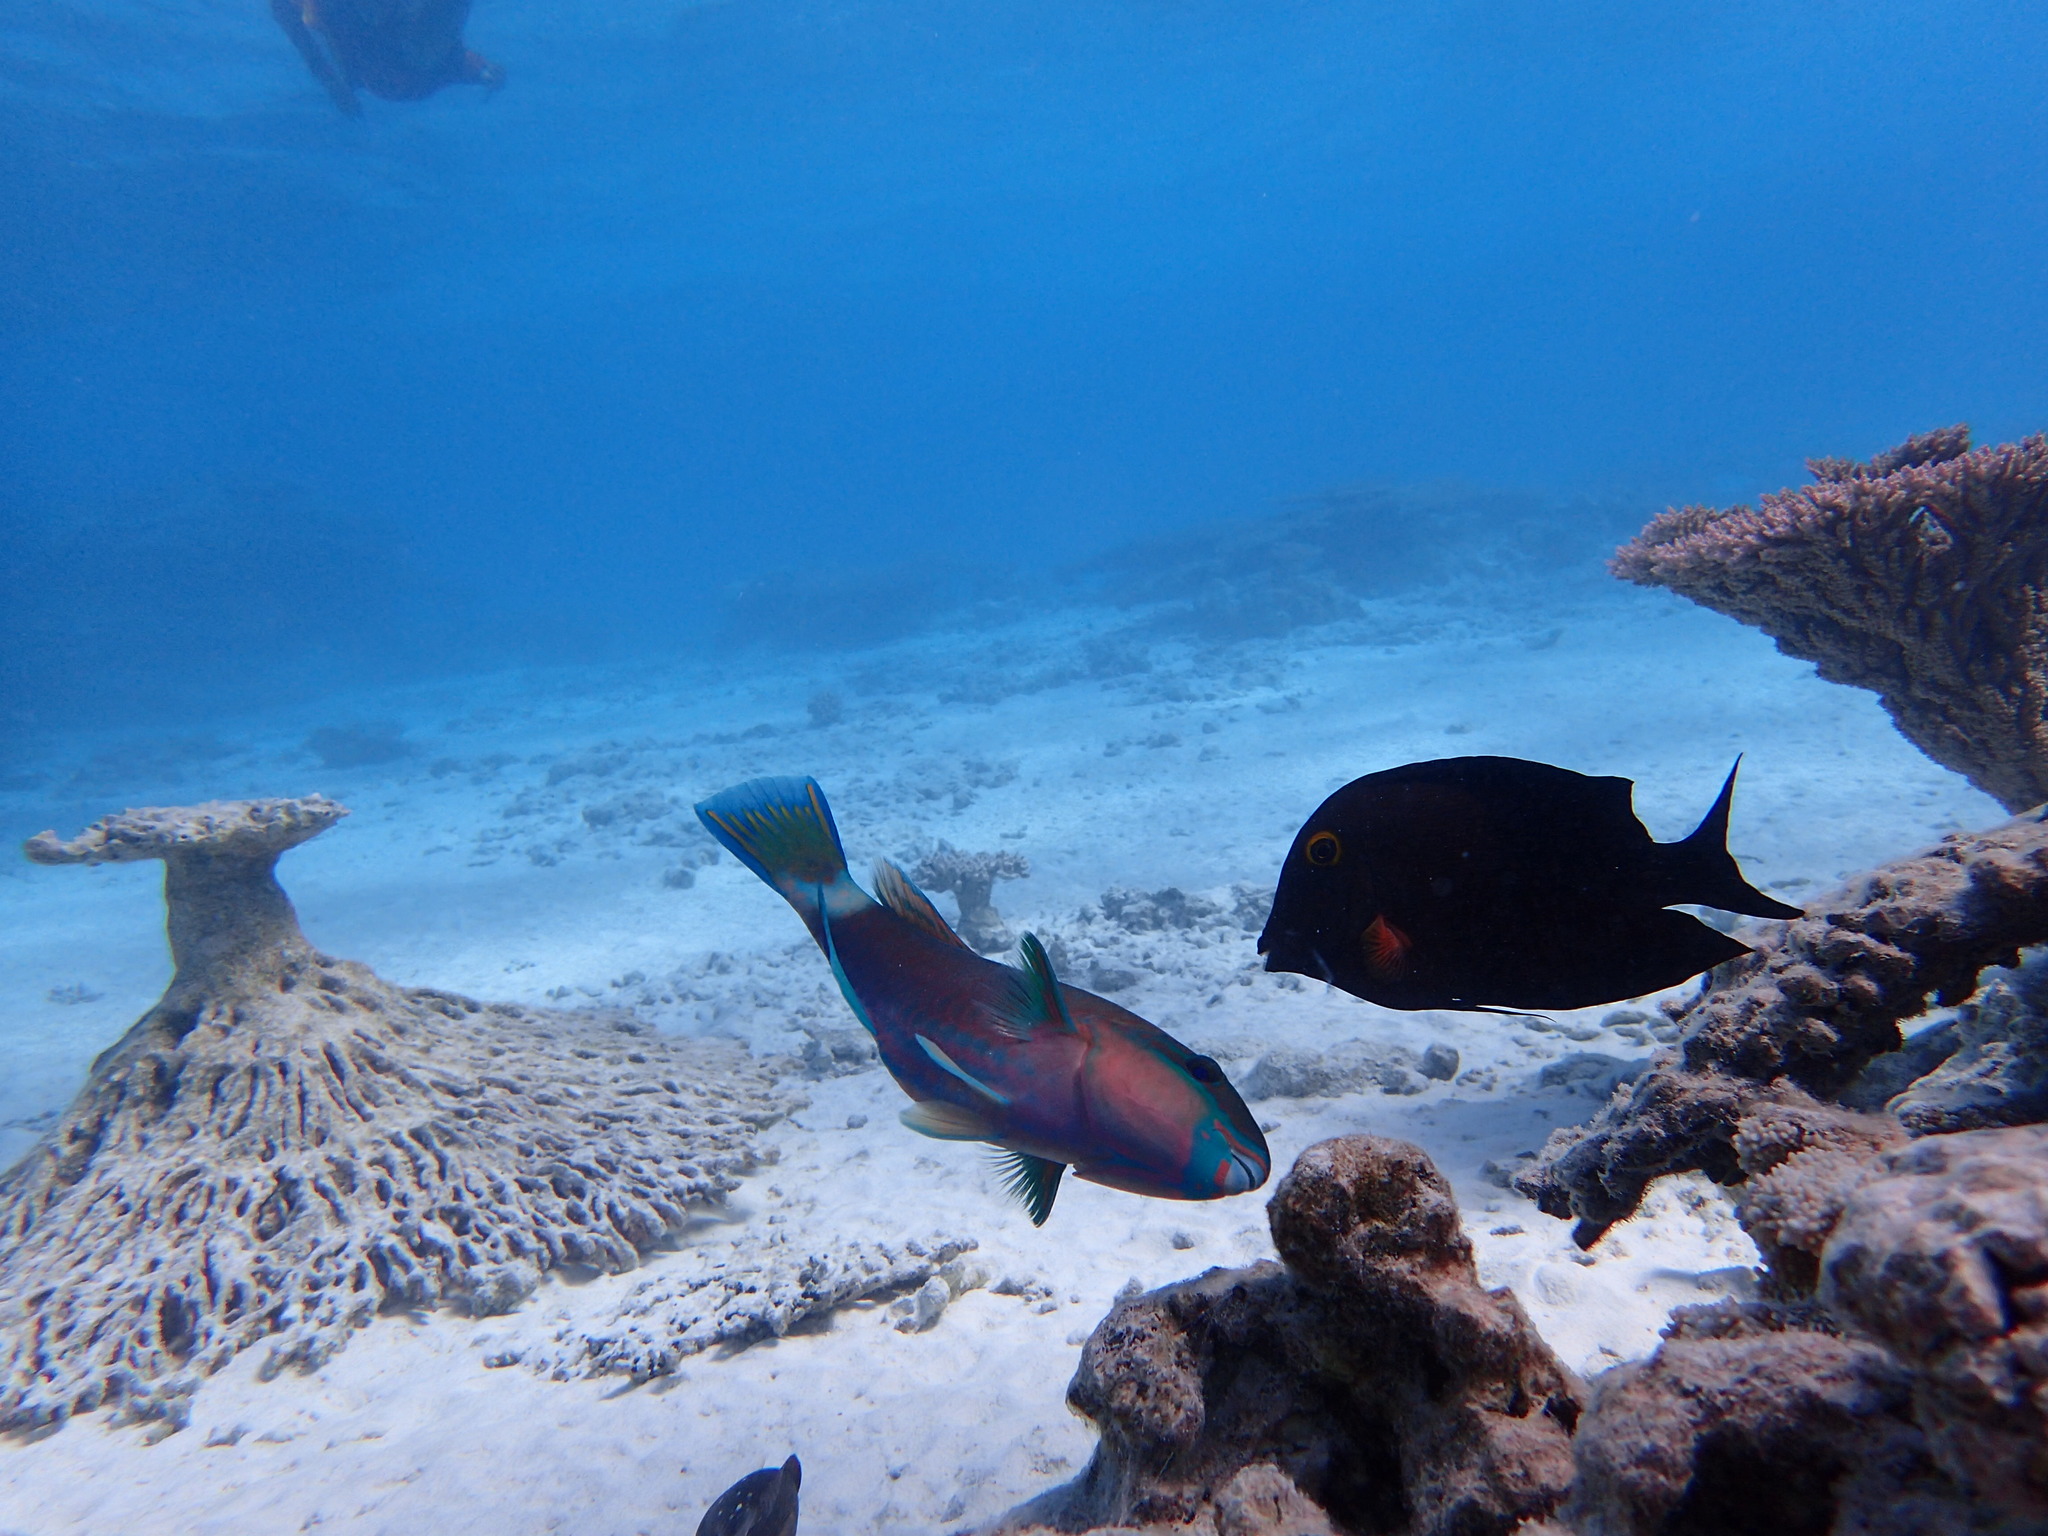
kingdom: Animalia
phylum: Chordata
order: Perciformes
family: Scaridae
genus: Chlorurus
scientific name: Chlorurus spilurus
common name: Bullethead parrotfish
